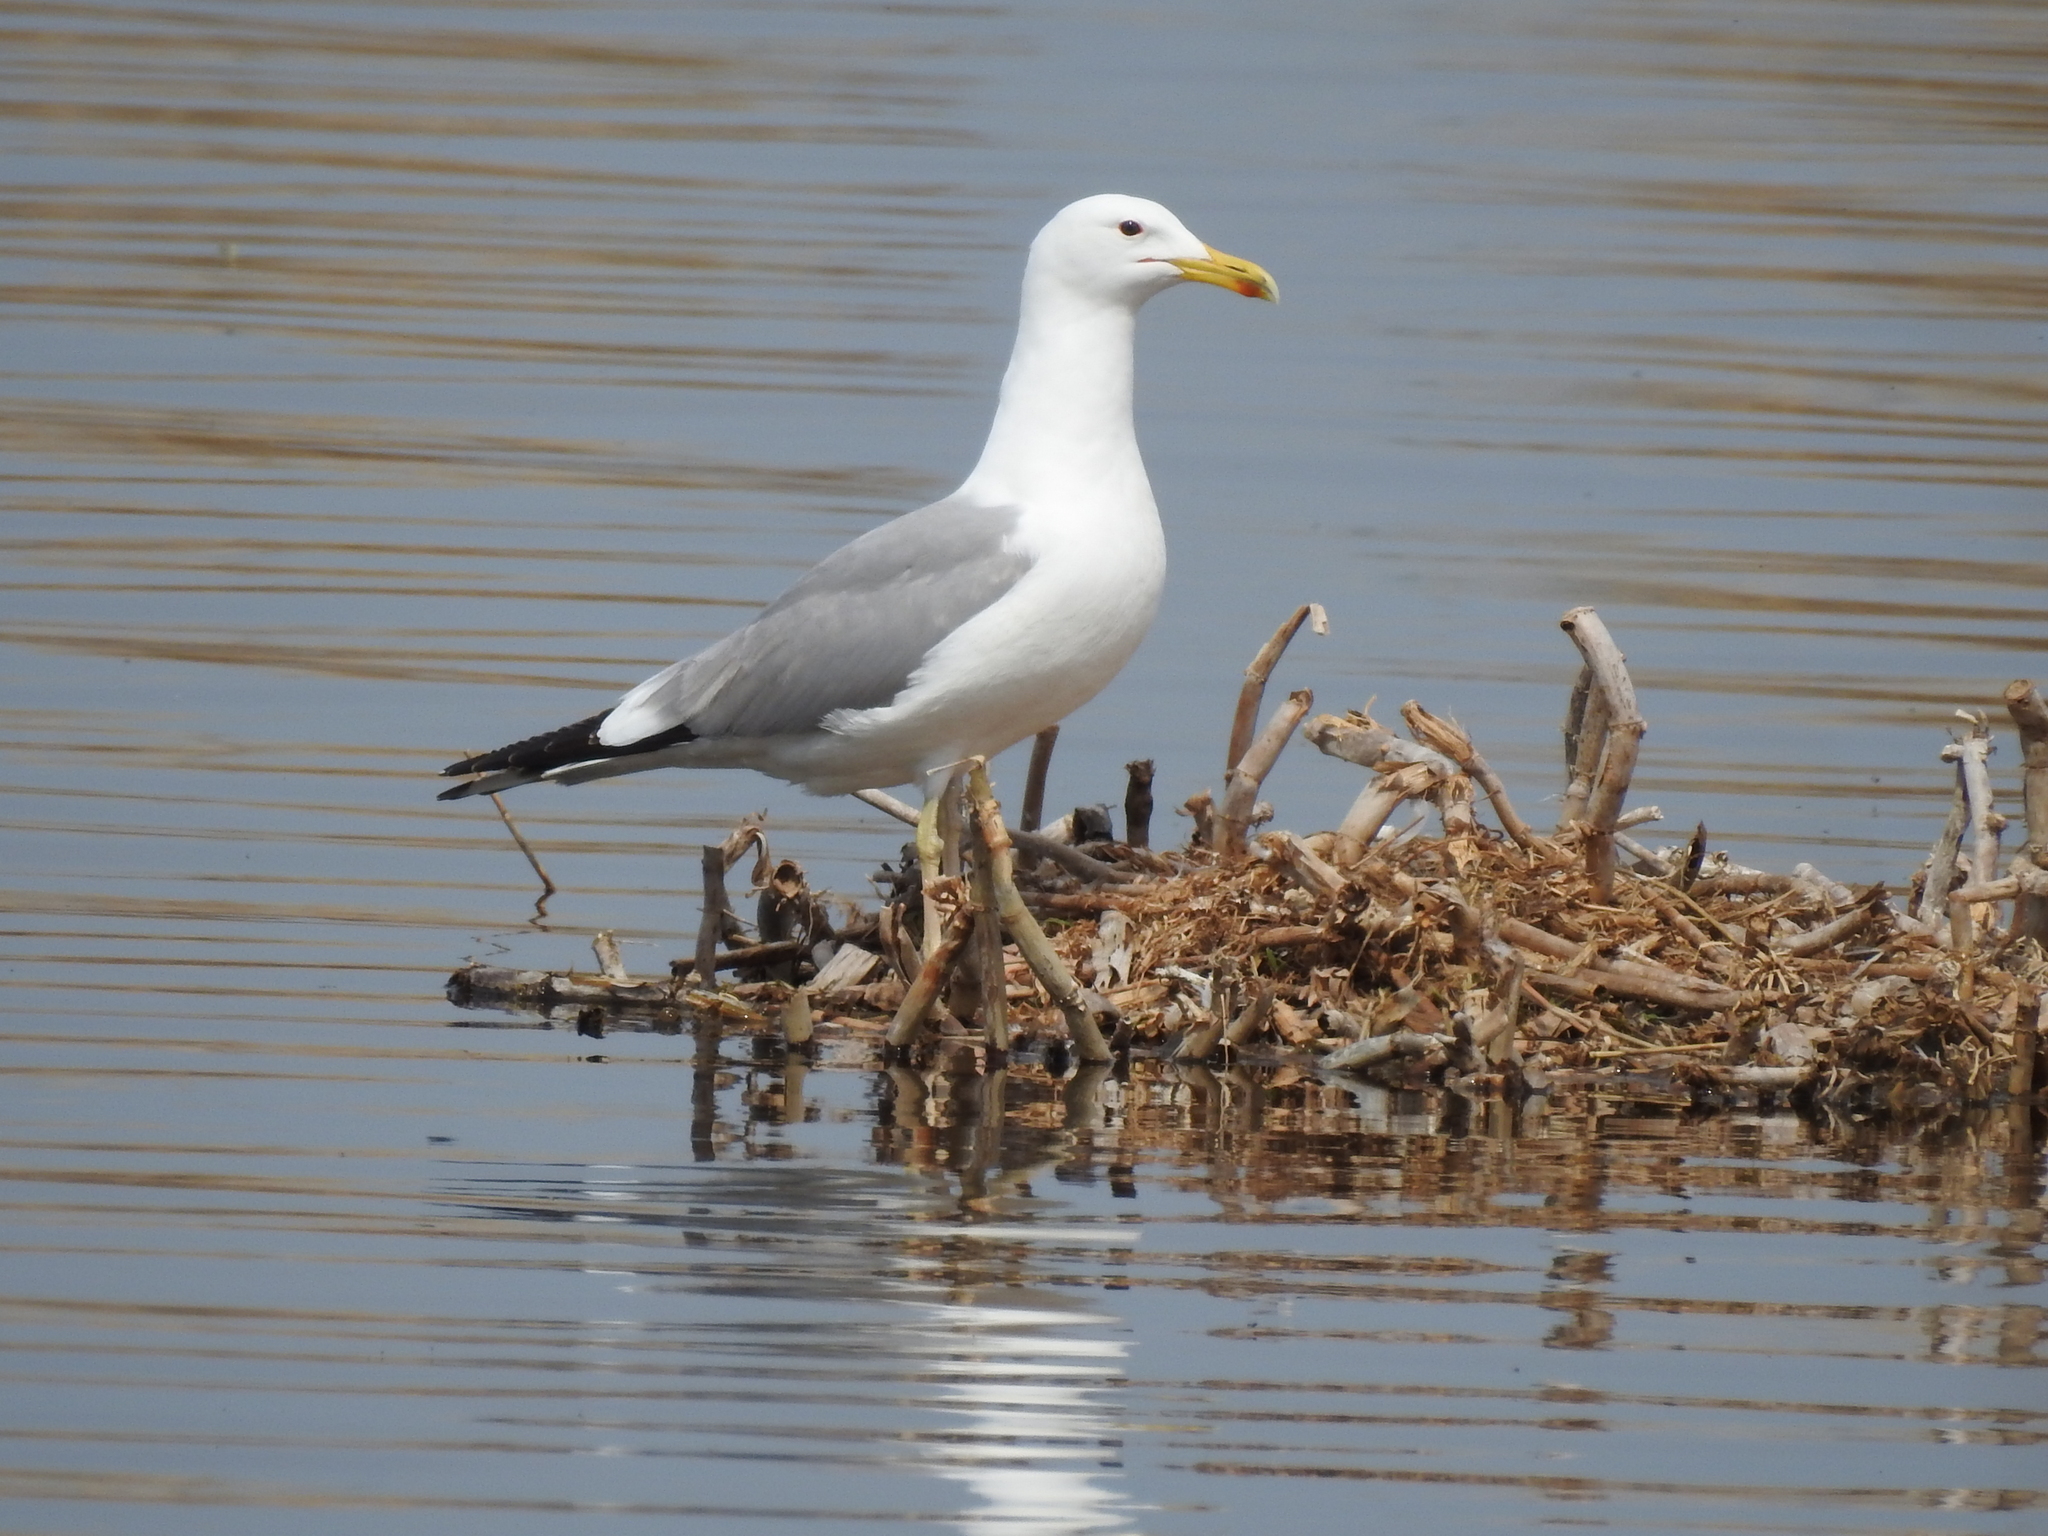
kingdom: Animalia
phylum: Chordata
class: Aves
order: Charadriiformes
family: Laridae
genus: Larus
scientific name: Larus cachinnans
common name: Caspian gull
